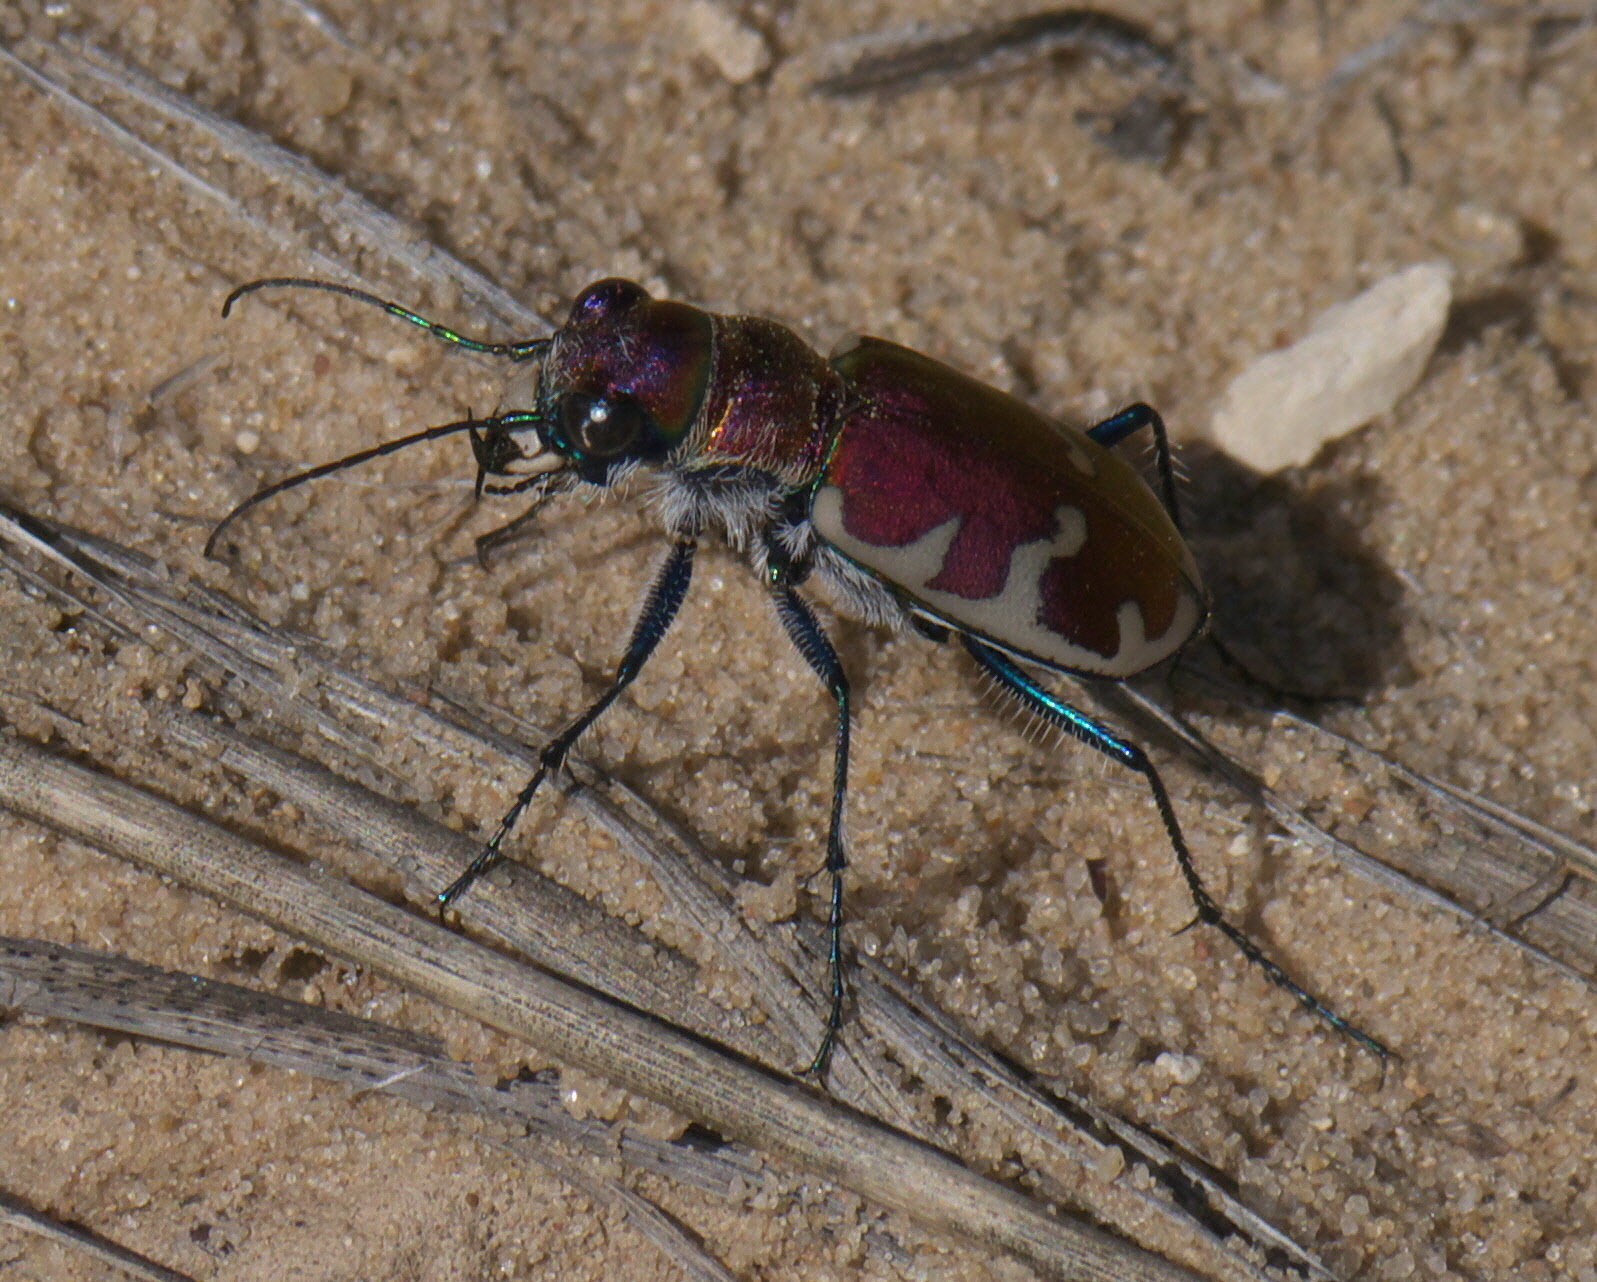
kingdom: Animalia
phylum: Arthropoda
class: Insecta
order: Coleoptera
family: Carabidae
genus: Cicindela
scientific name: Cicindela formosa
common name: Big sand tiger beetle
